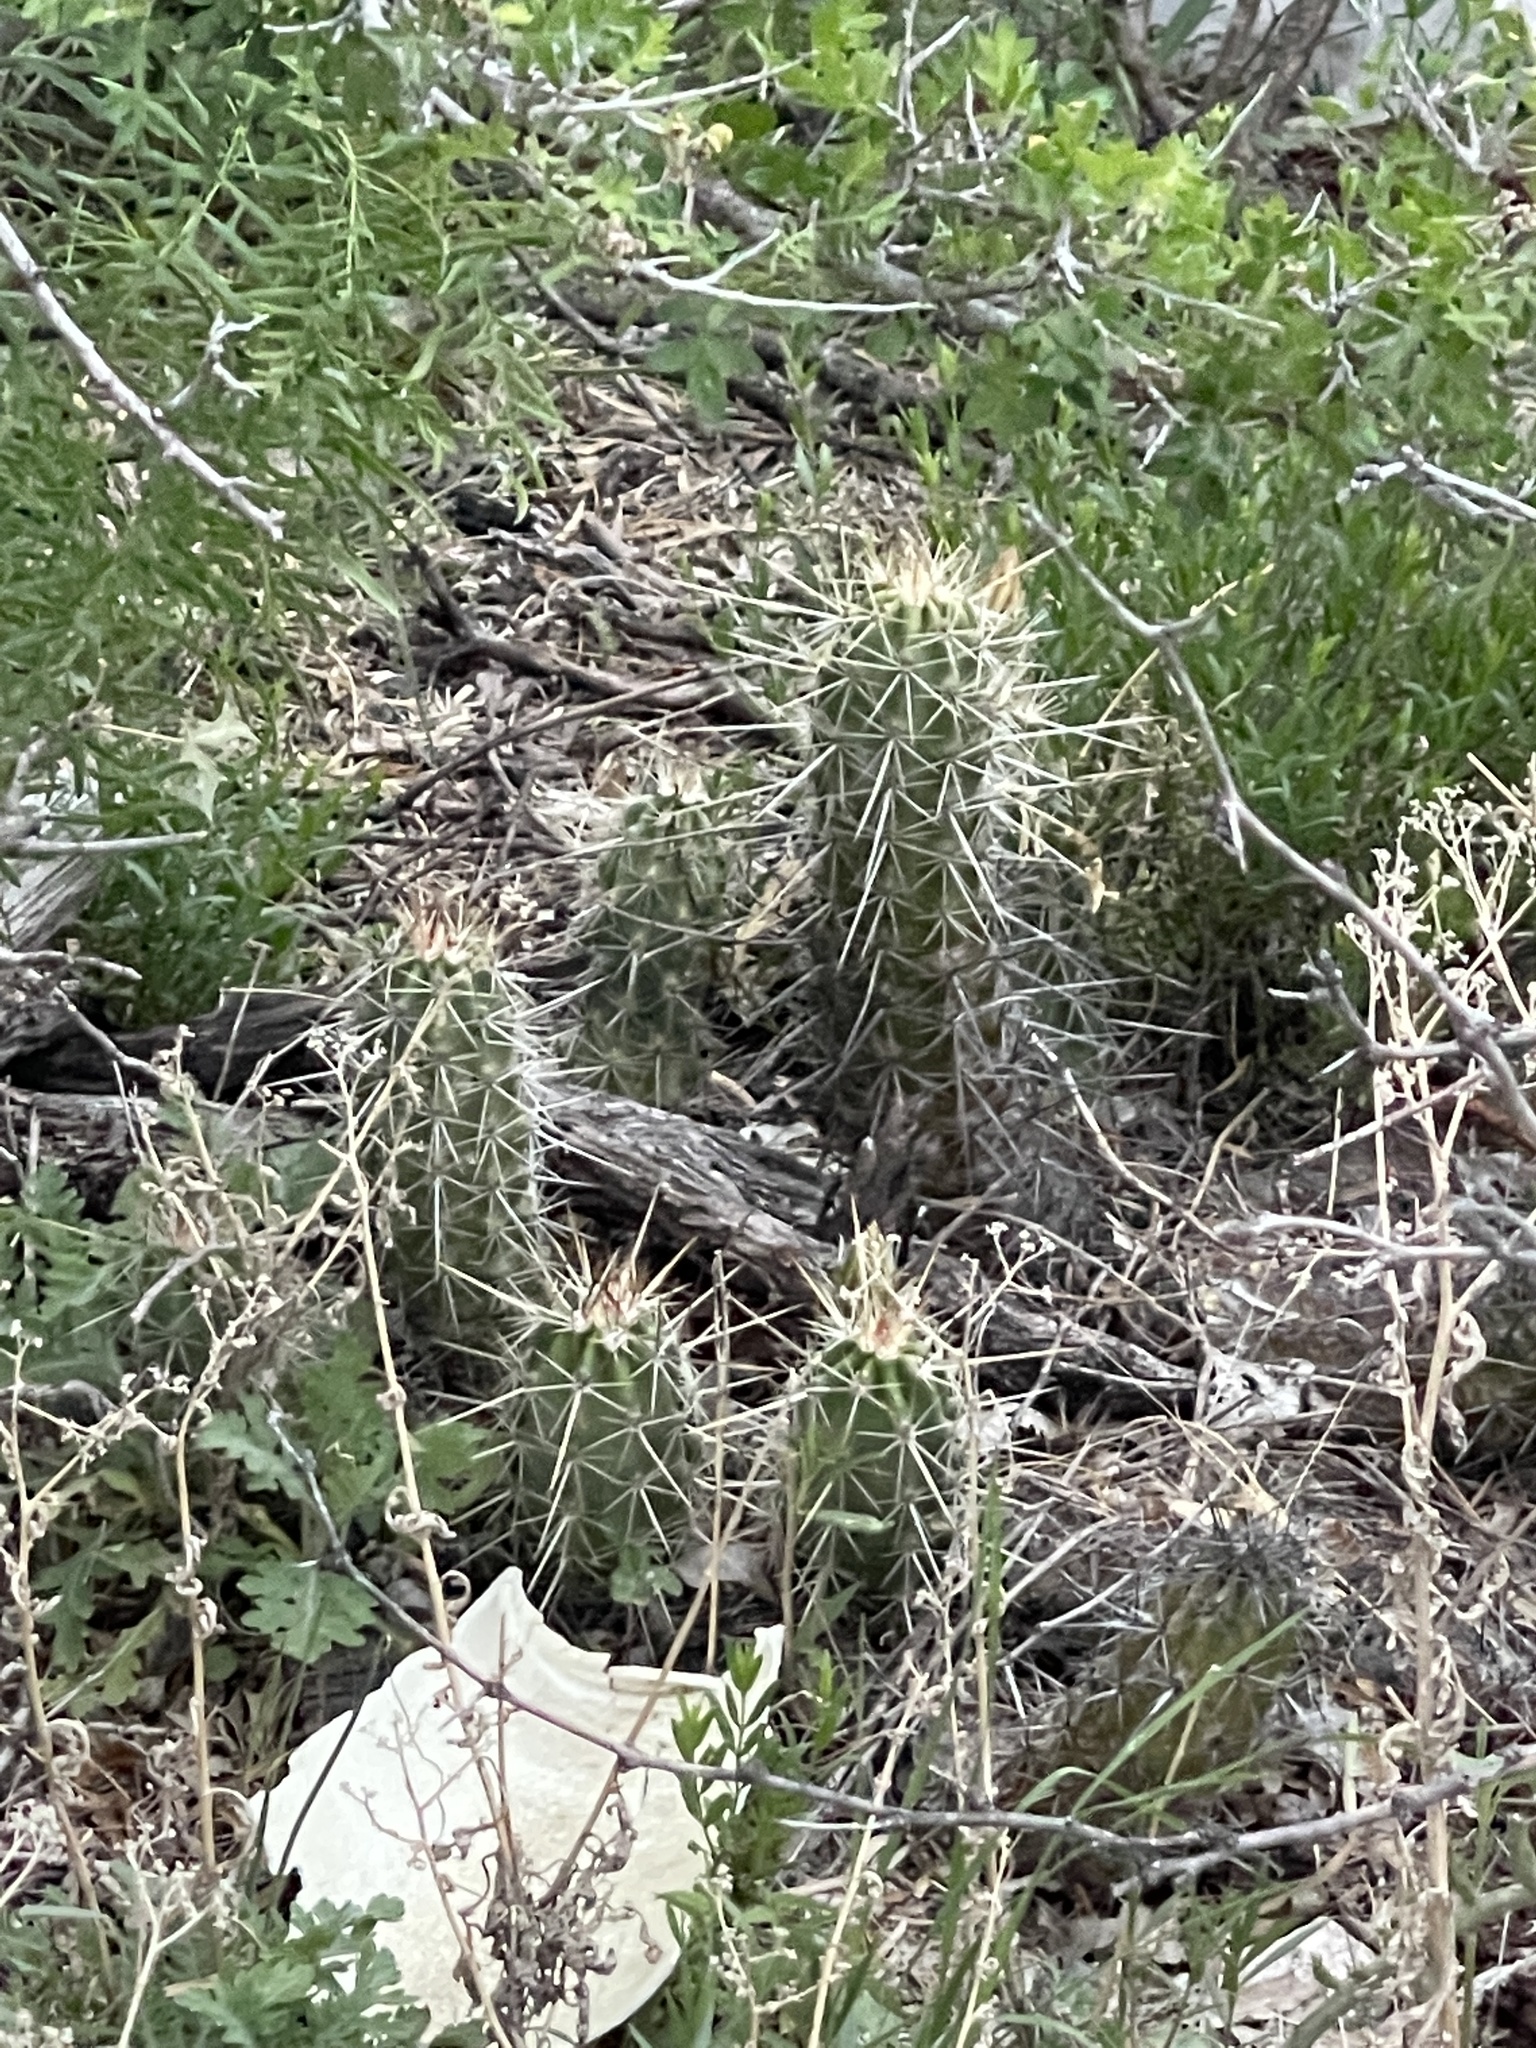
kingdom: Plantae
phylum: Tracheophyta
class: Magnoliopsida
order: Caryophyllales
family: Cactaceae
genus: Echinocereus
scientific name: Echinocereus enneacanthus
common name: Pitaya
